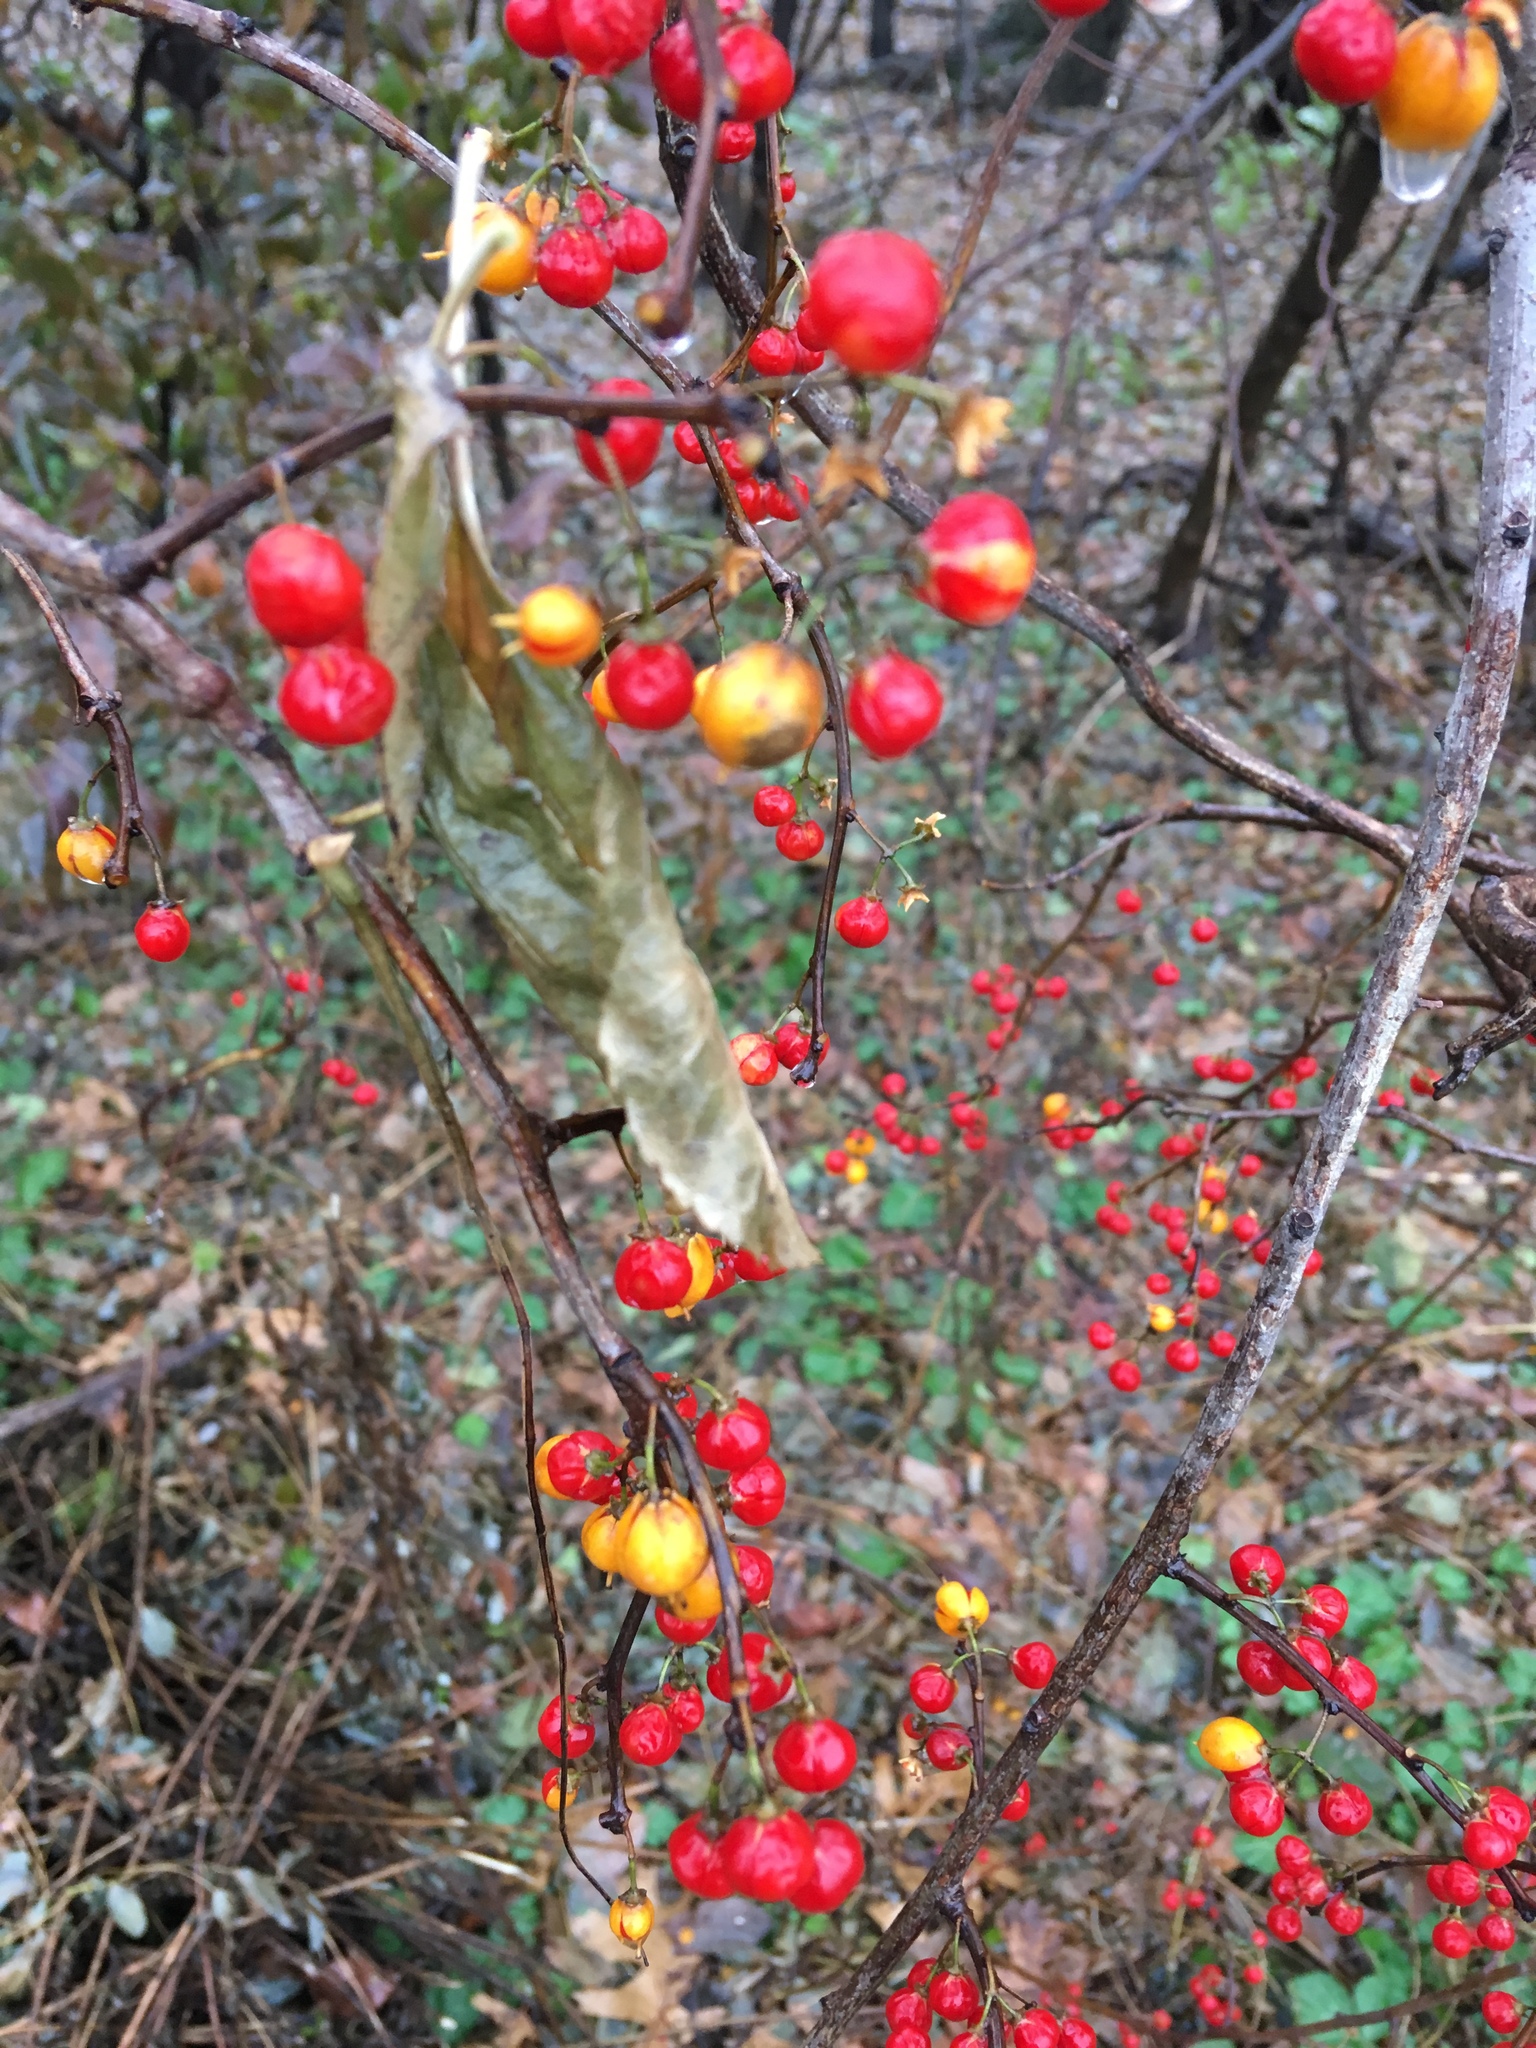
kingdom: Plantae
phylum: Tracheophyta
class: Magnoliopsida
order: Celastrales
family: Celastraceae
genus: Celastrus
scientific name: Celastrus orbiculatus
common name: Oriental bittersweet
